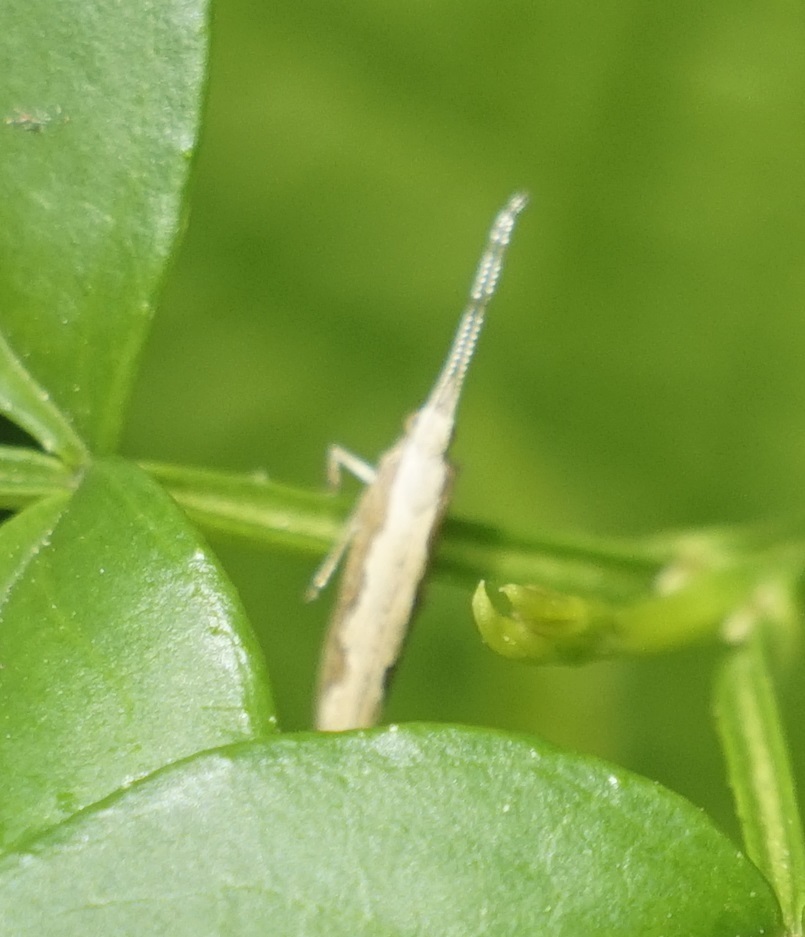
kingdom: Animalia
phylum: Arthropoda
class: Insecta
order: Lepidoptera
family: Plutellidae
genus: Plutella
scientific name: Plutella
